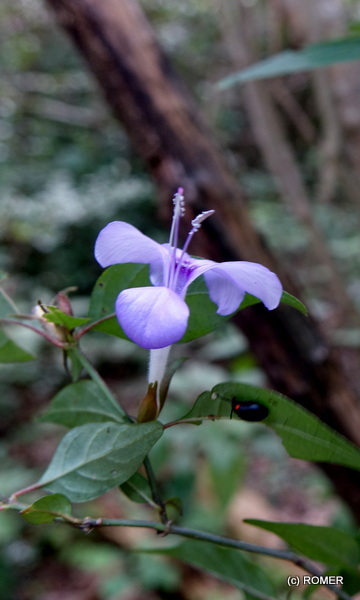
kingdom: Plantae
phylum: Tracheophyta
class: Magnoliopsida
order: Lamiales
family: Acanthaceae
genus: Barleria
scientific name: Barleria phillyreifolia
